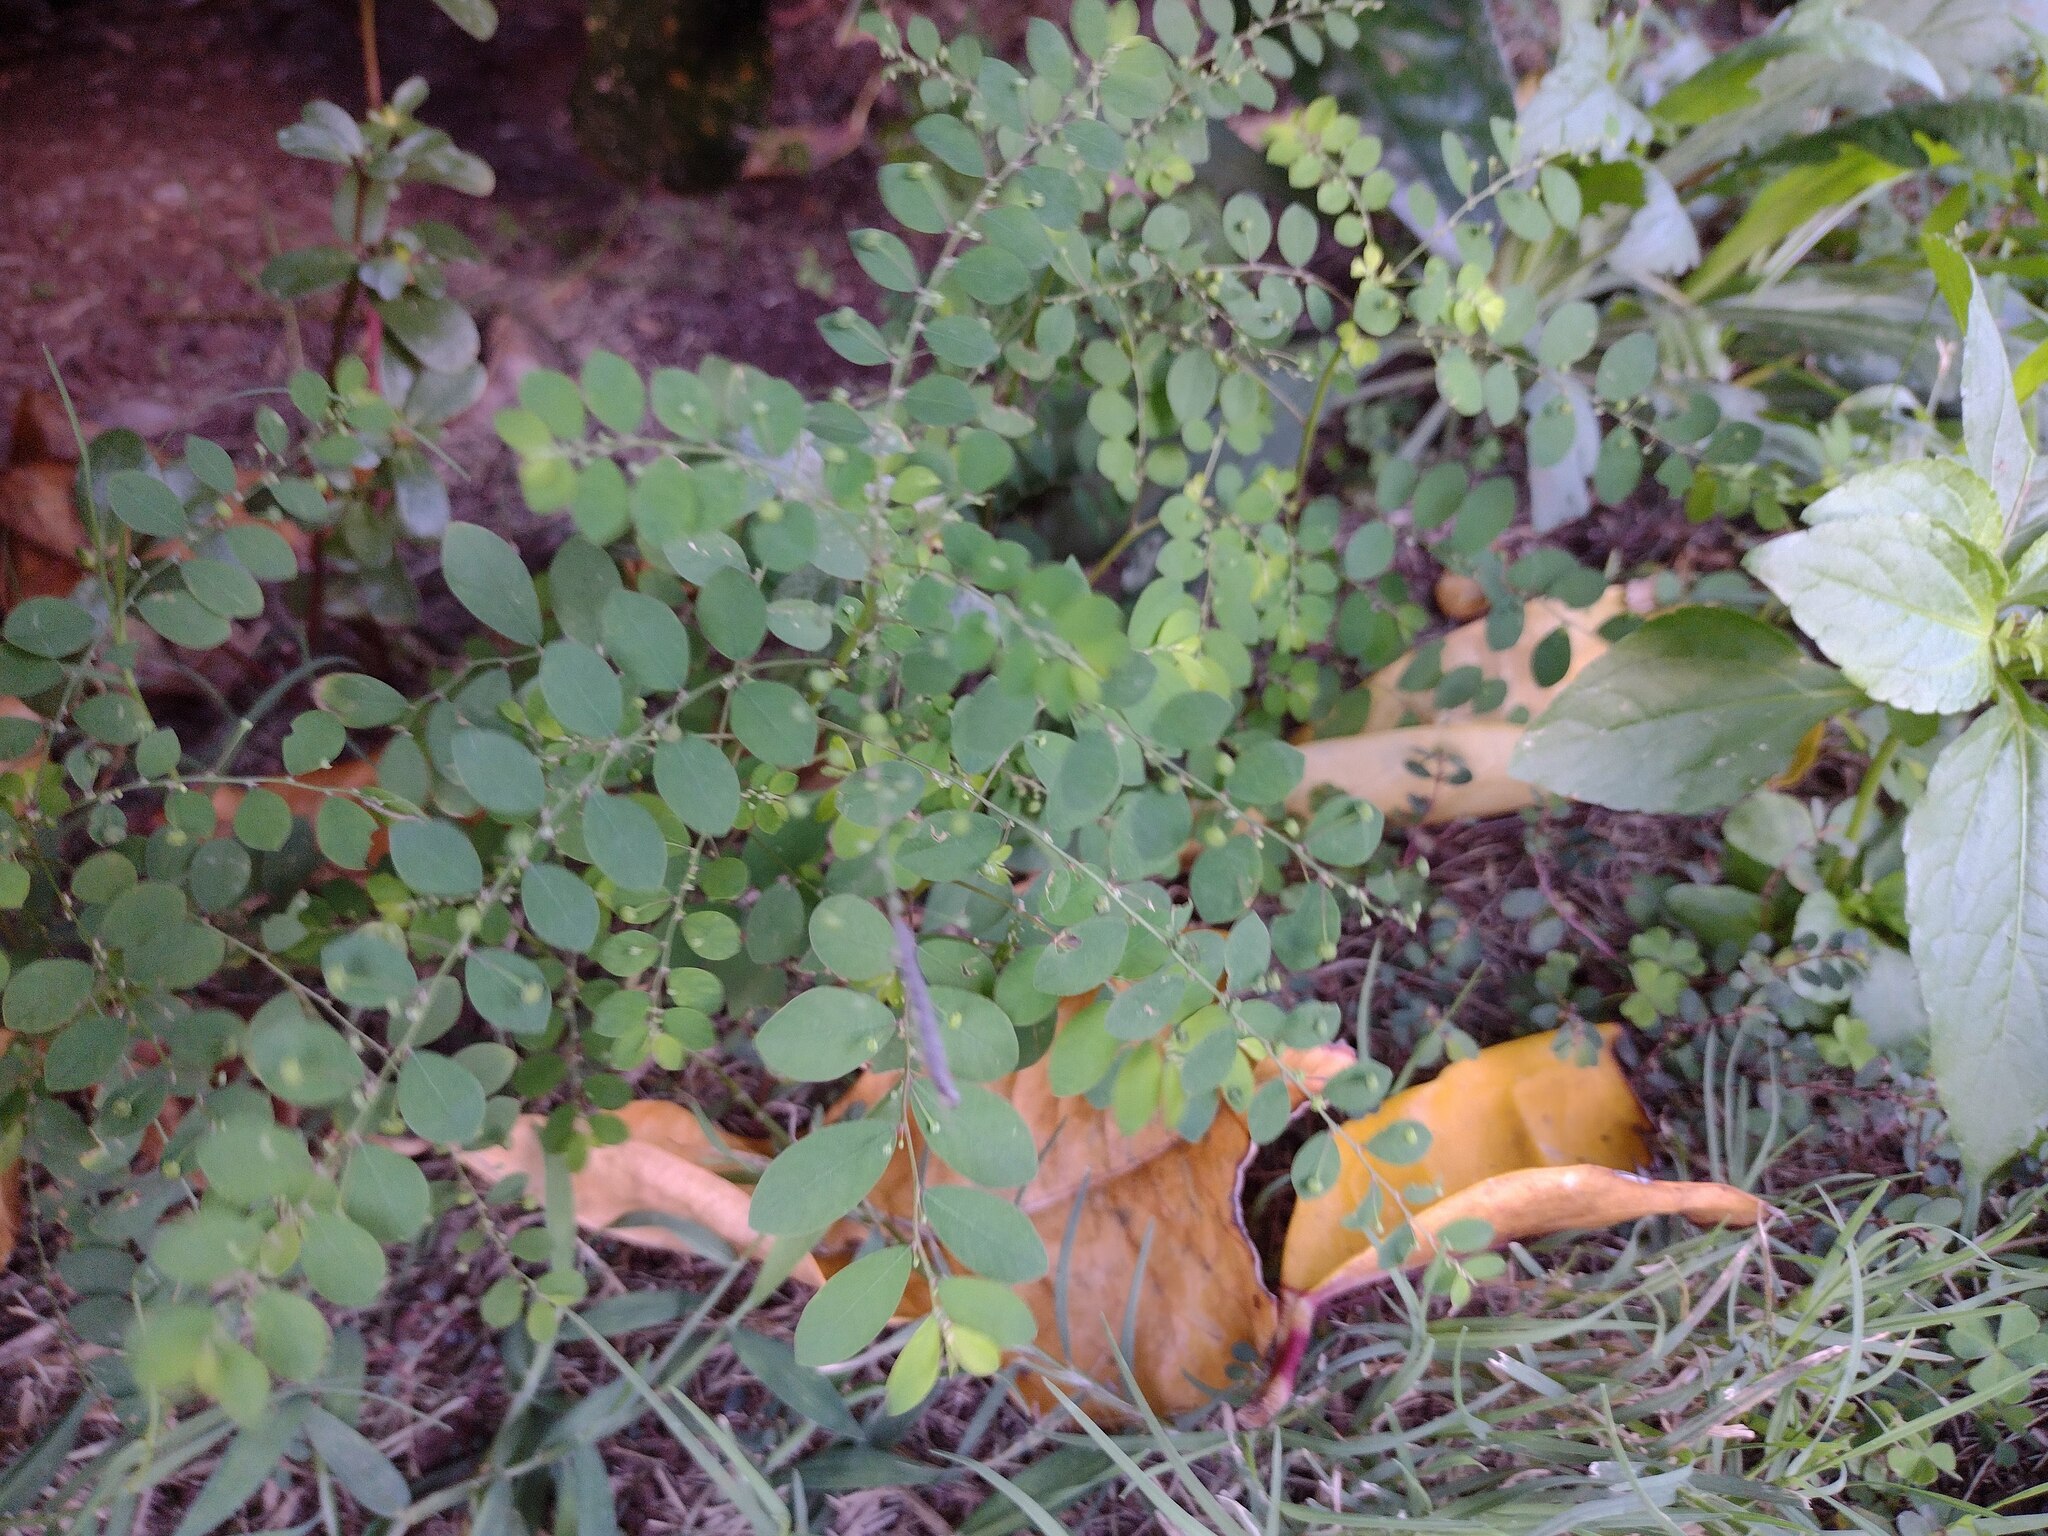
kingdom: Plantae
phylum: Tracheophyta
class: Magnoliopsida
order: Malpighiales
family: Phyllanthaceae
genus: Phyllanthus
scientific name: Phyllanthus tenellus
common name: Mascarene island leaf-flower
